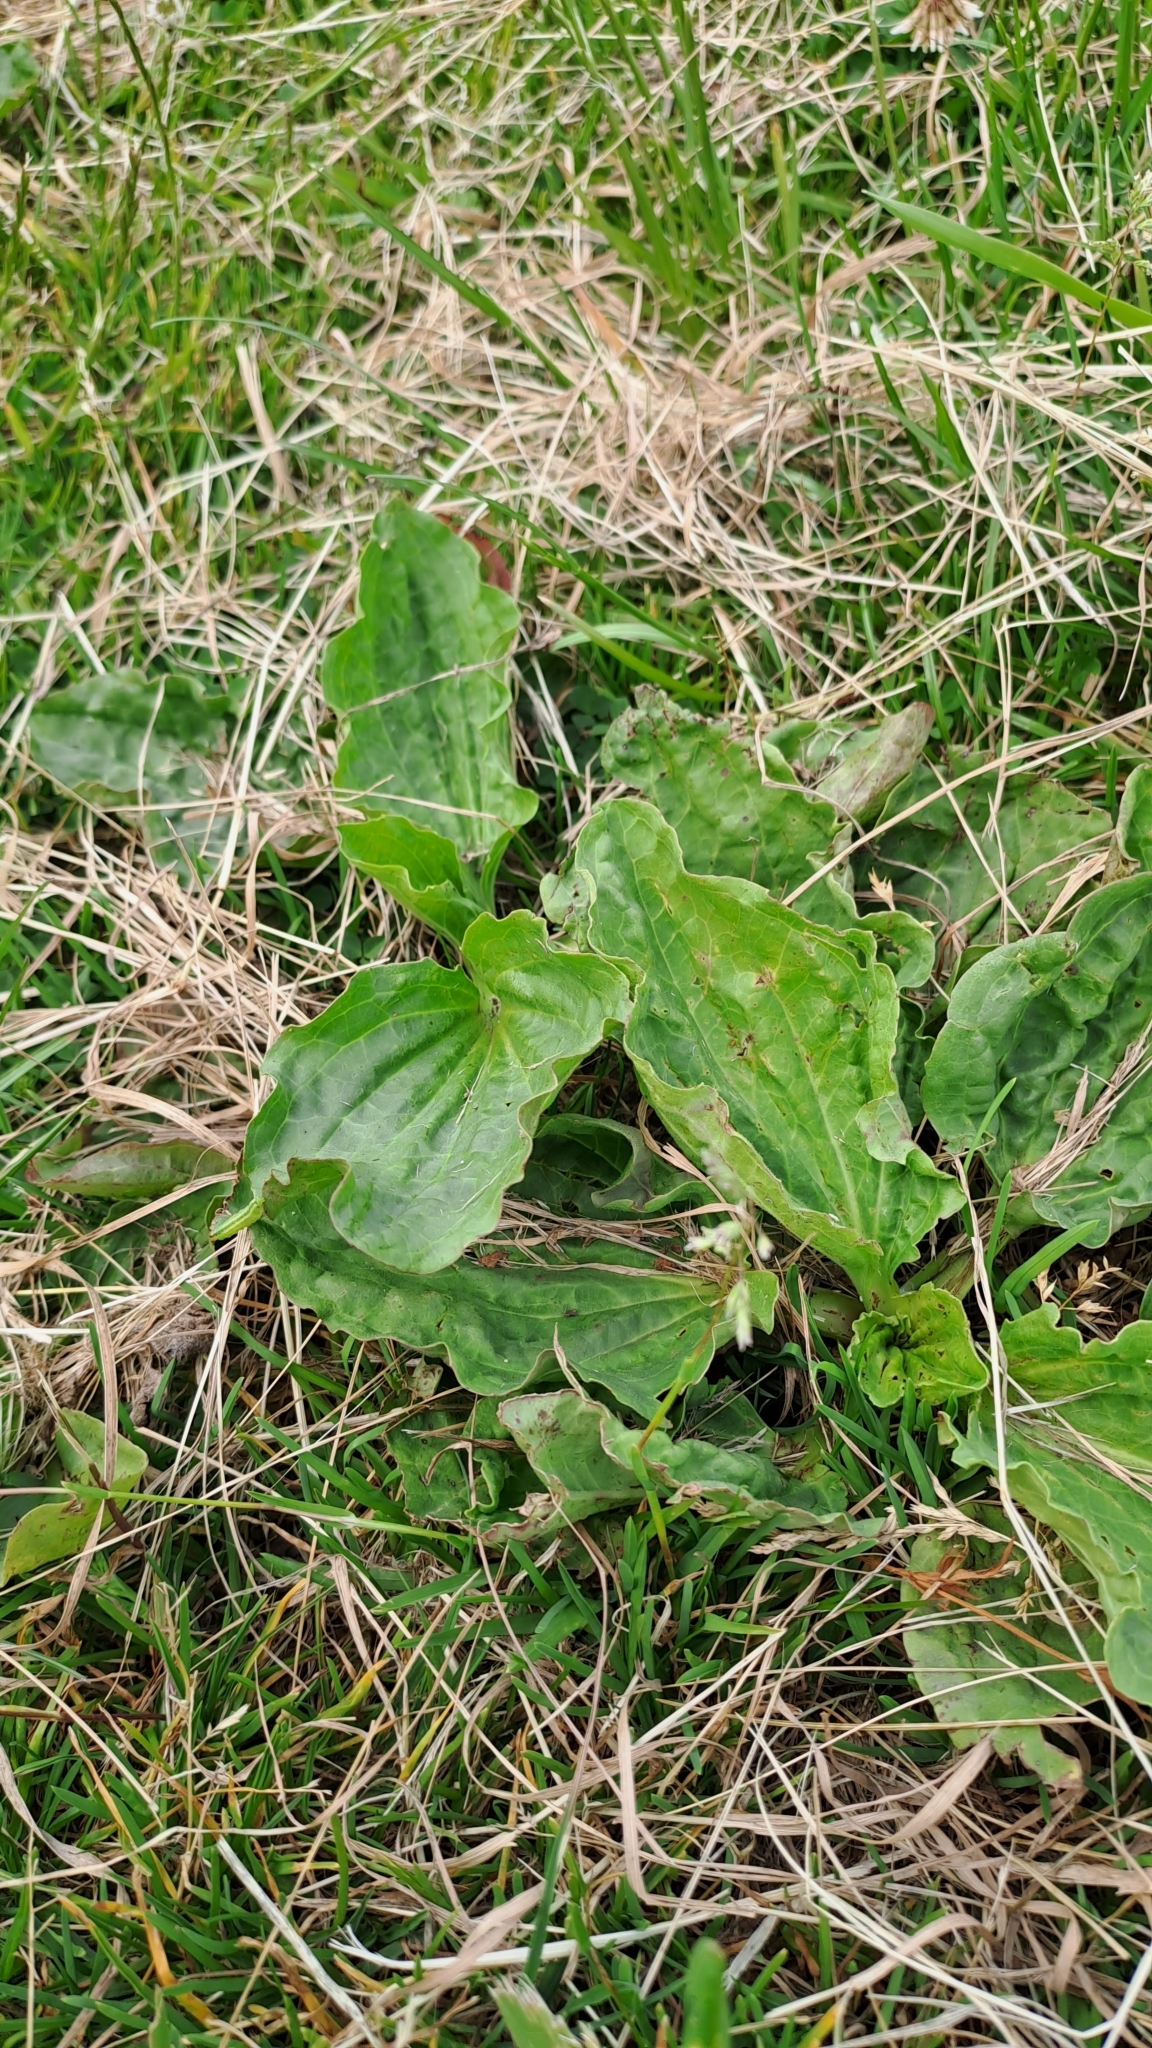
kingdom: Plantae
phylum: Tracheophyta
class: Magnoliopsida
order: Lamiales
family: Plantaginaceae
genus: Plantago
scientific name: Plantago major
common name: Common plantain
